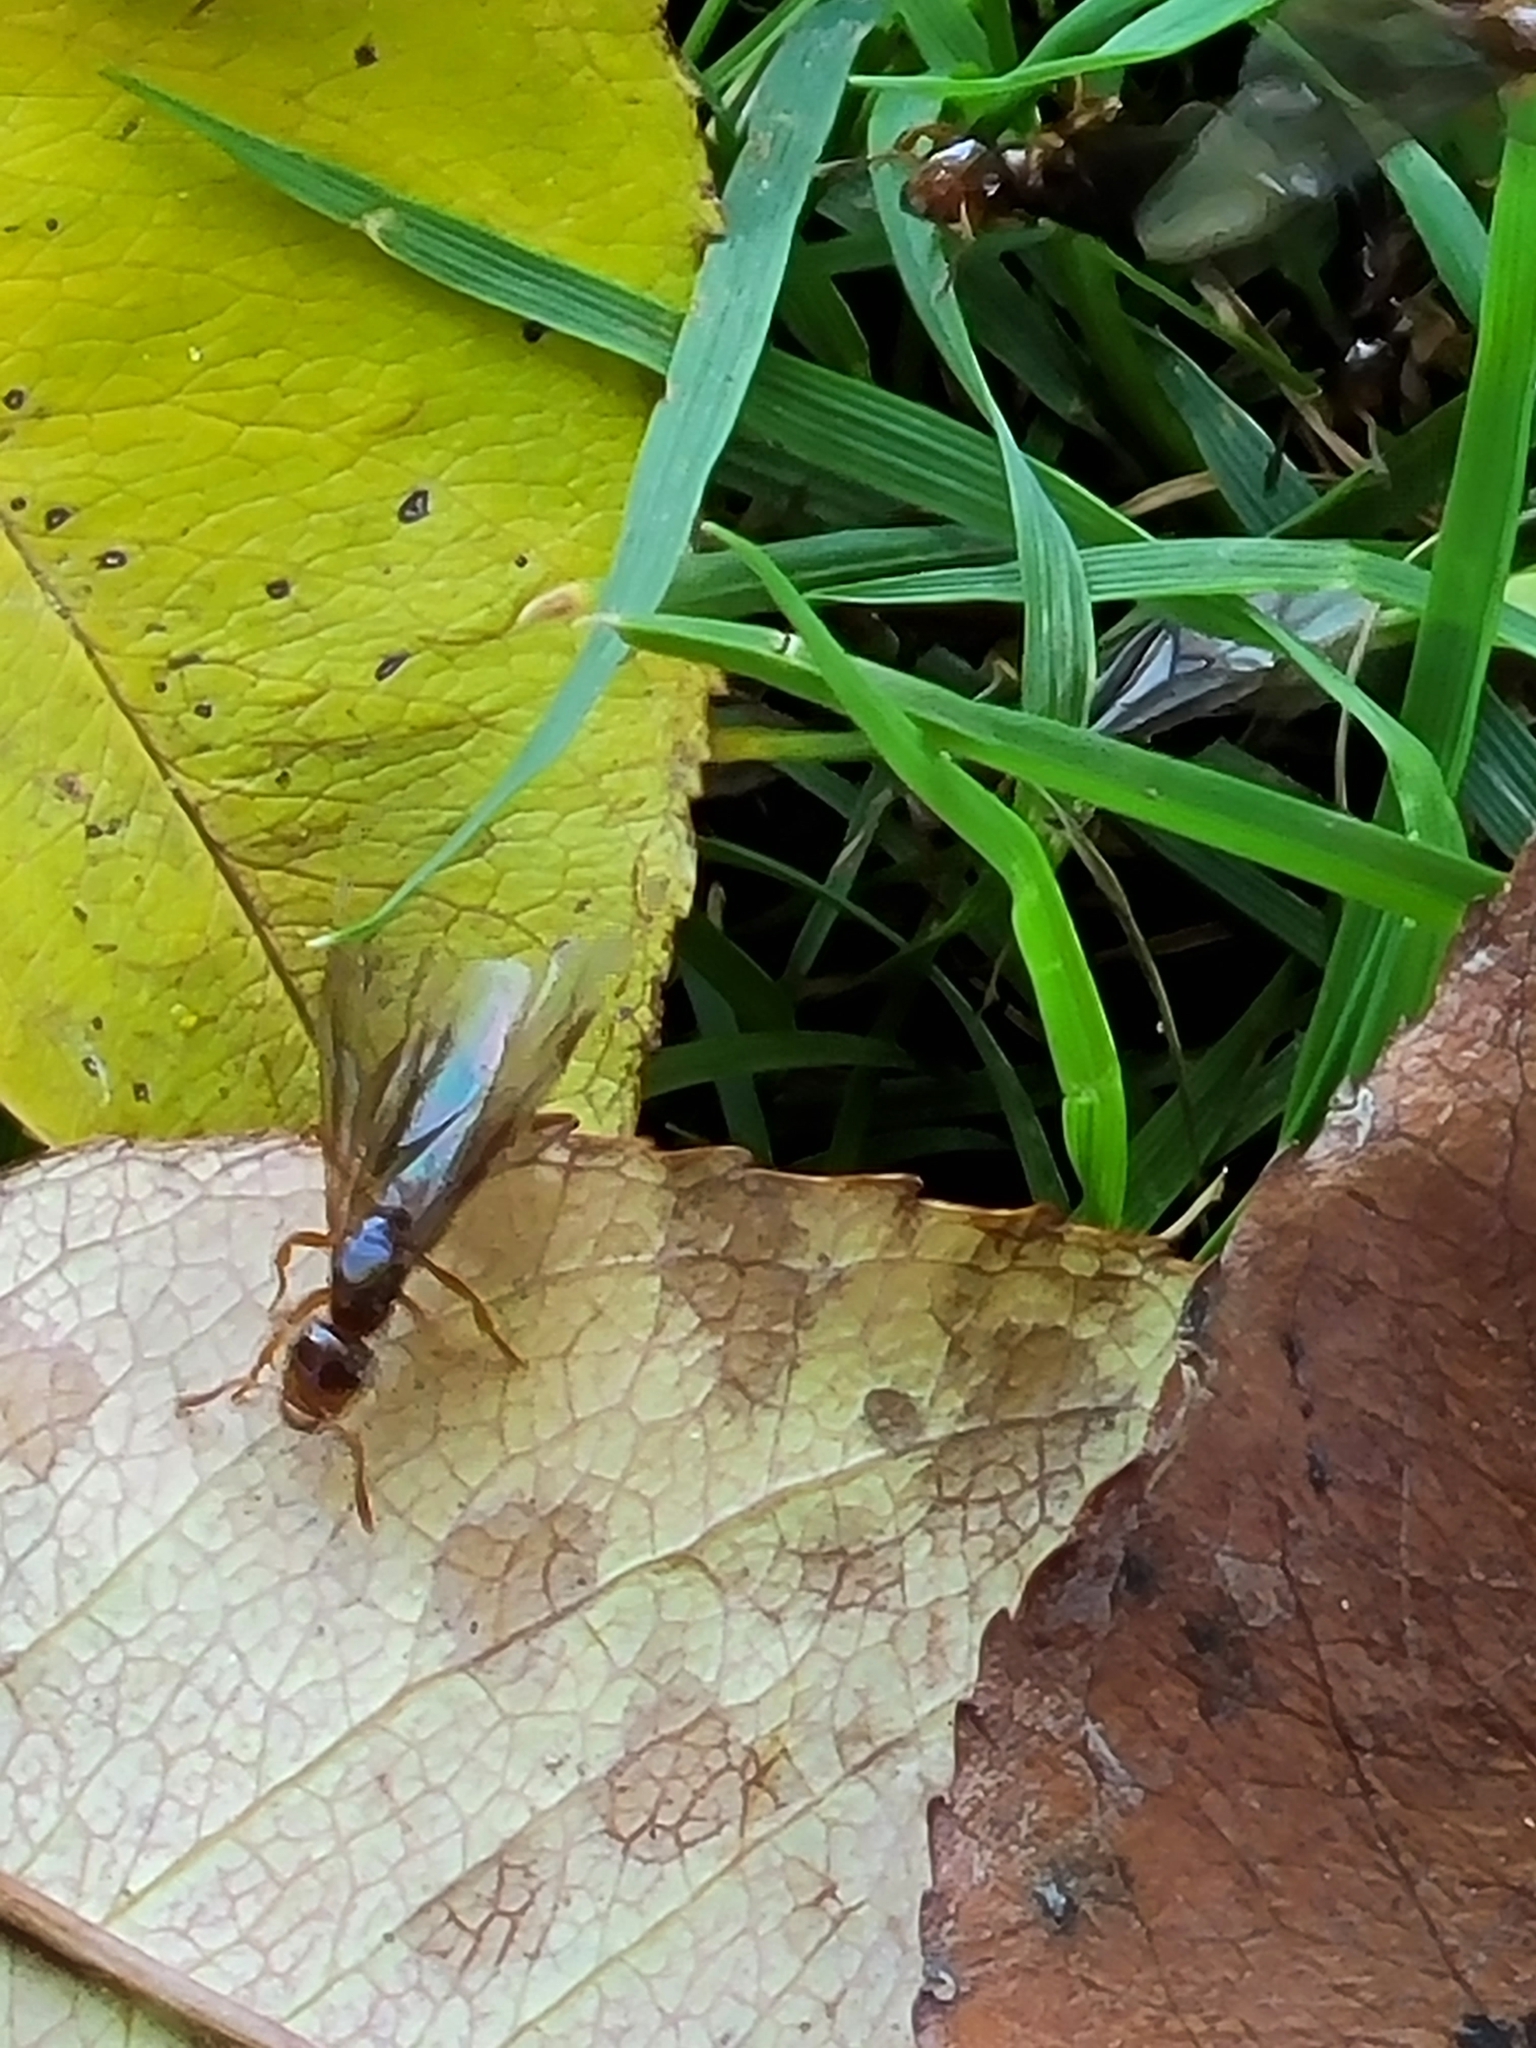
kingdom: Animalia
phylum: Arthropoda
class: Insecta
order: Hymenoptera
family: Formicidae
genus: Lasius
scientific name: Lasius claviger
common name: Common citronella ant
